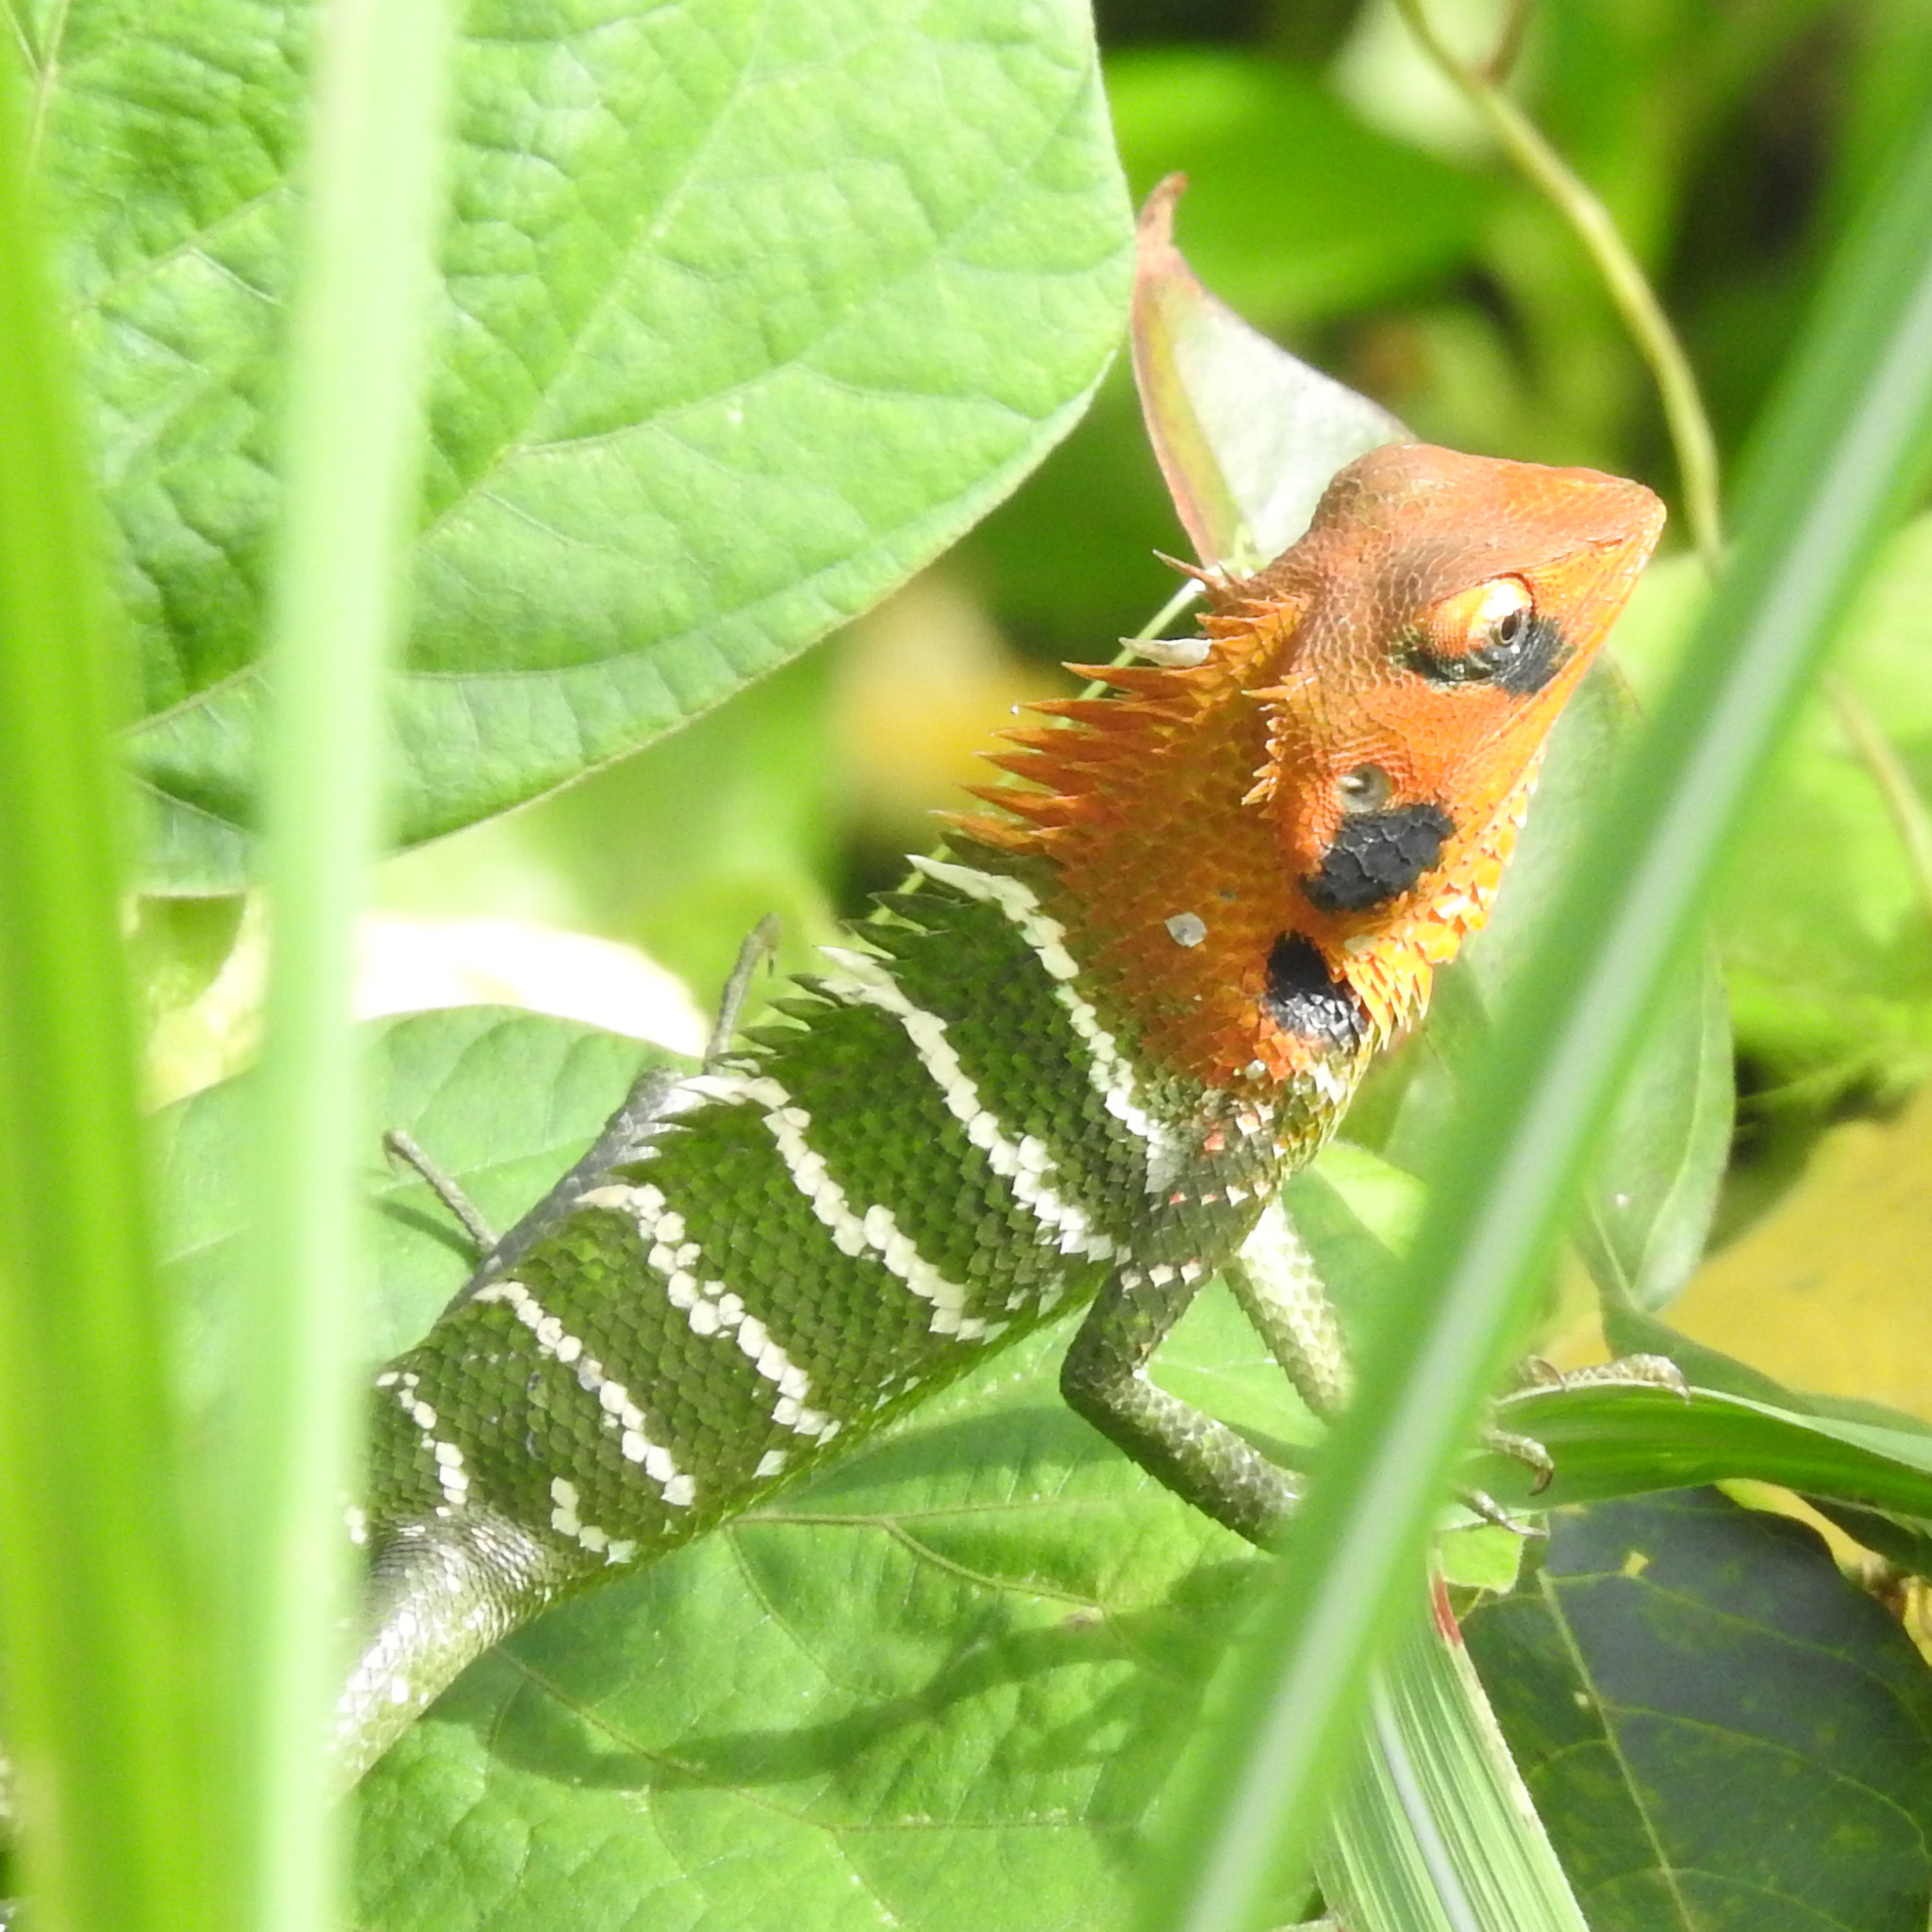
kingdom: Animalia
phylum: Chordata
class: Squamata
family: Agamidae
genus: Calotes
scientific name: Calotes calotes
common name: Common green forest lizard
